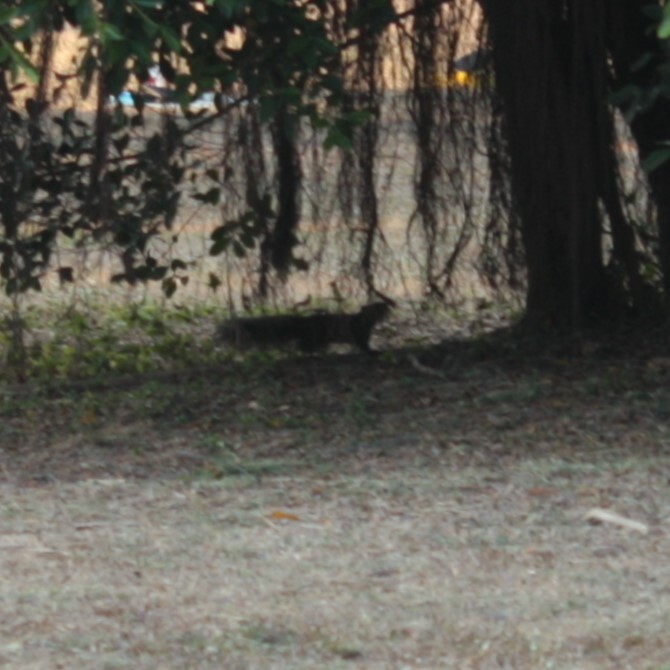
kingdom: Animalia
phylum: Chordata
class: Mammalia
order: Rodentia
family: Sciuridae
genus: Callosciurus
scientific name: Callosciurus erythraeus
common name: Pallas's squirrel
